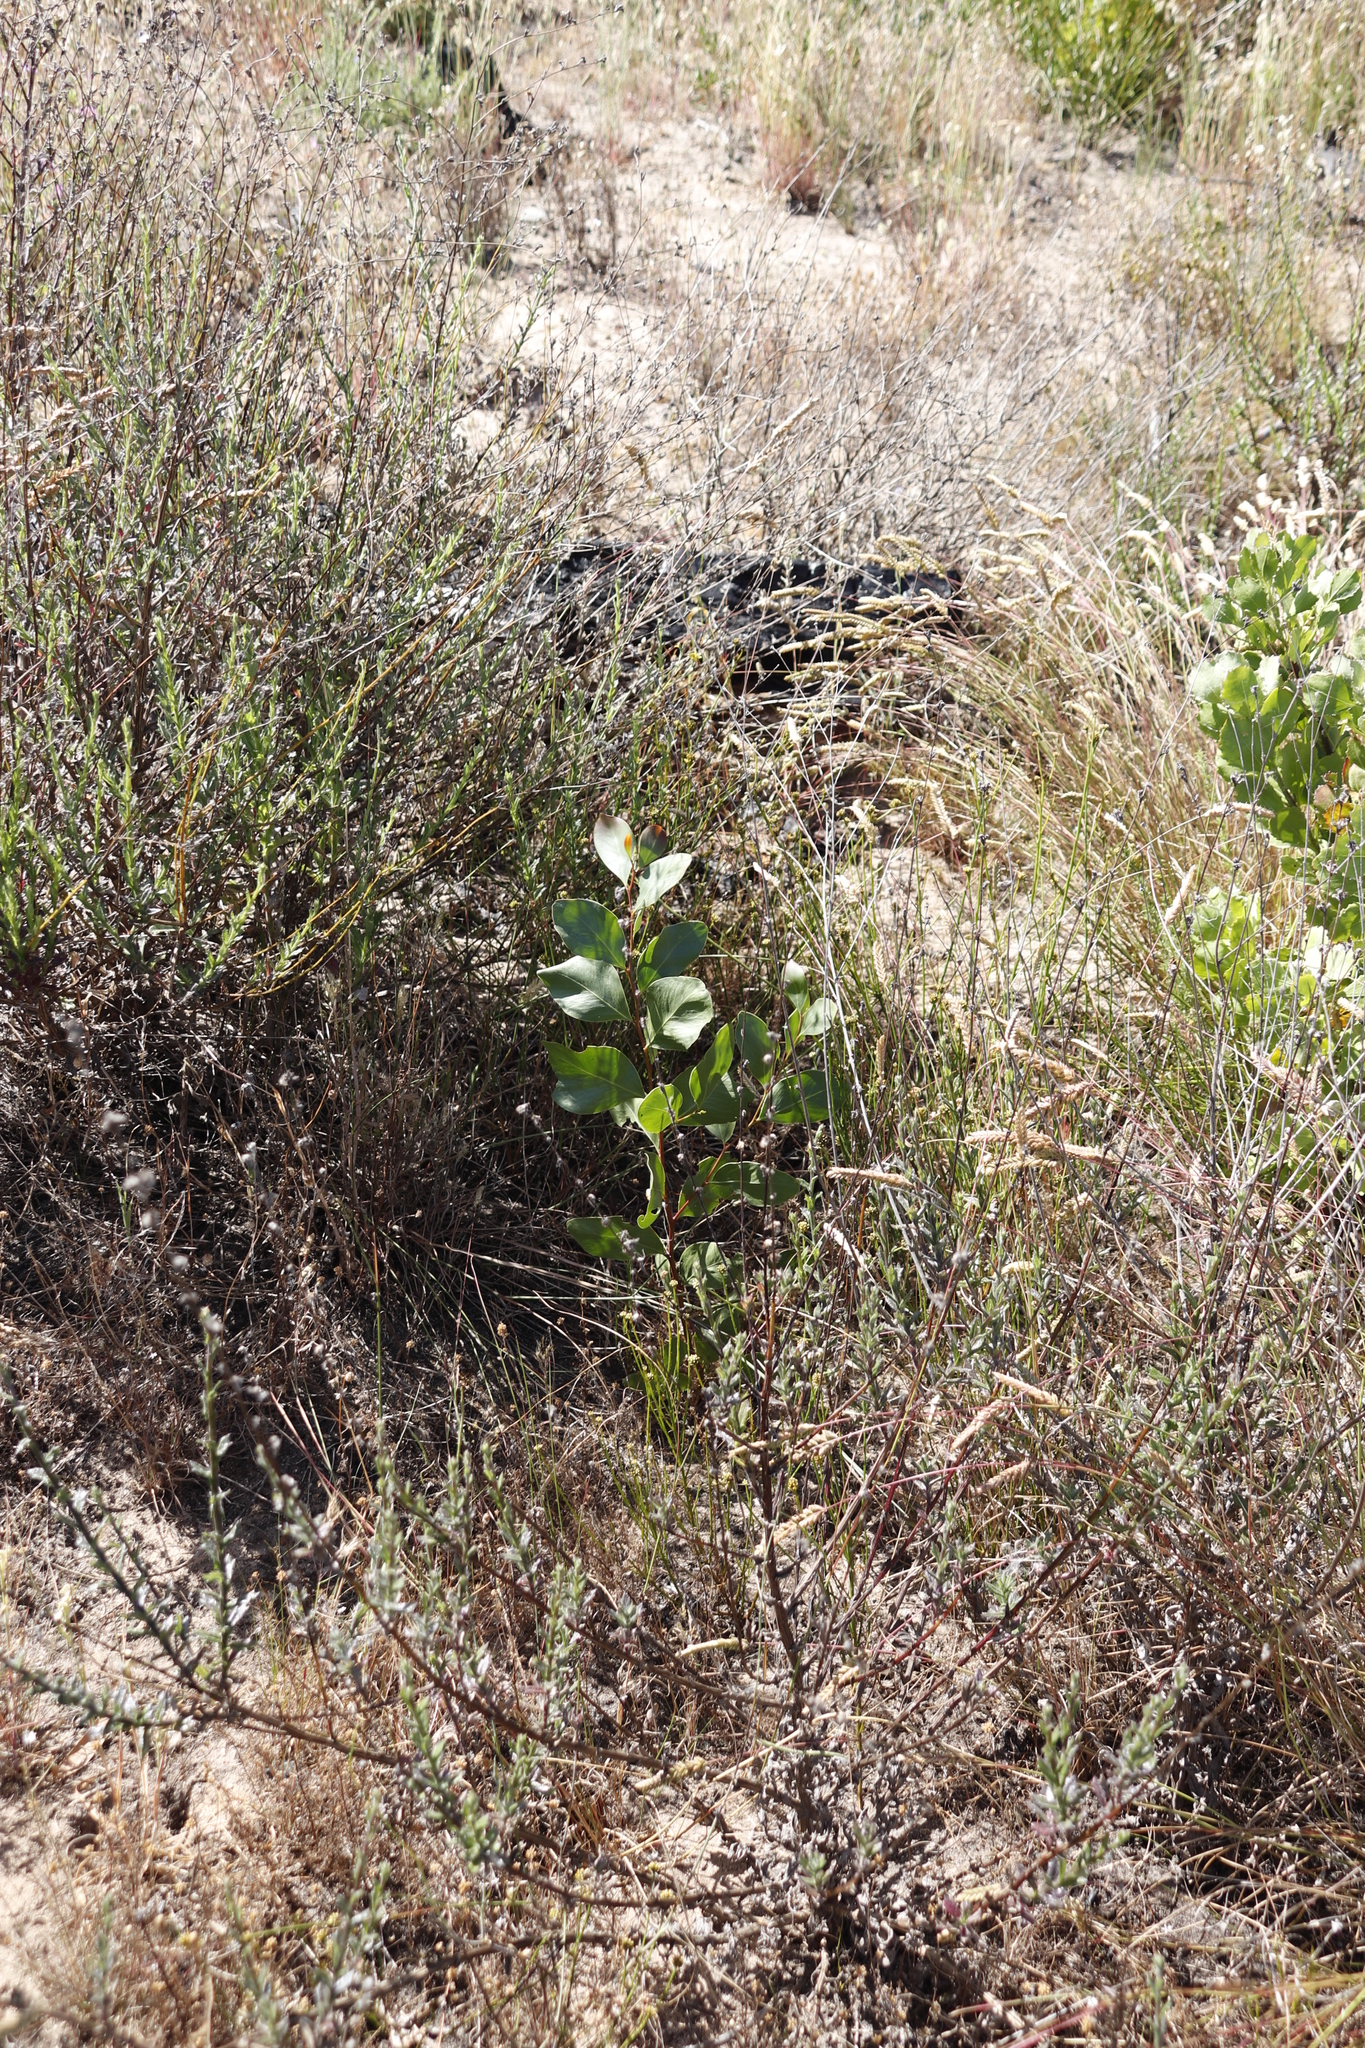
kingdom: Plantae
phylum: Tracheophyta
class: Magnoliopsida
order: Fabales
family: Fabaceae
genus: Acacia
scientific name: Acacia pycnantha
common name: Golden wattle
